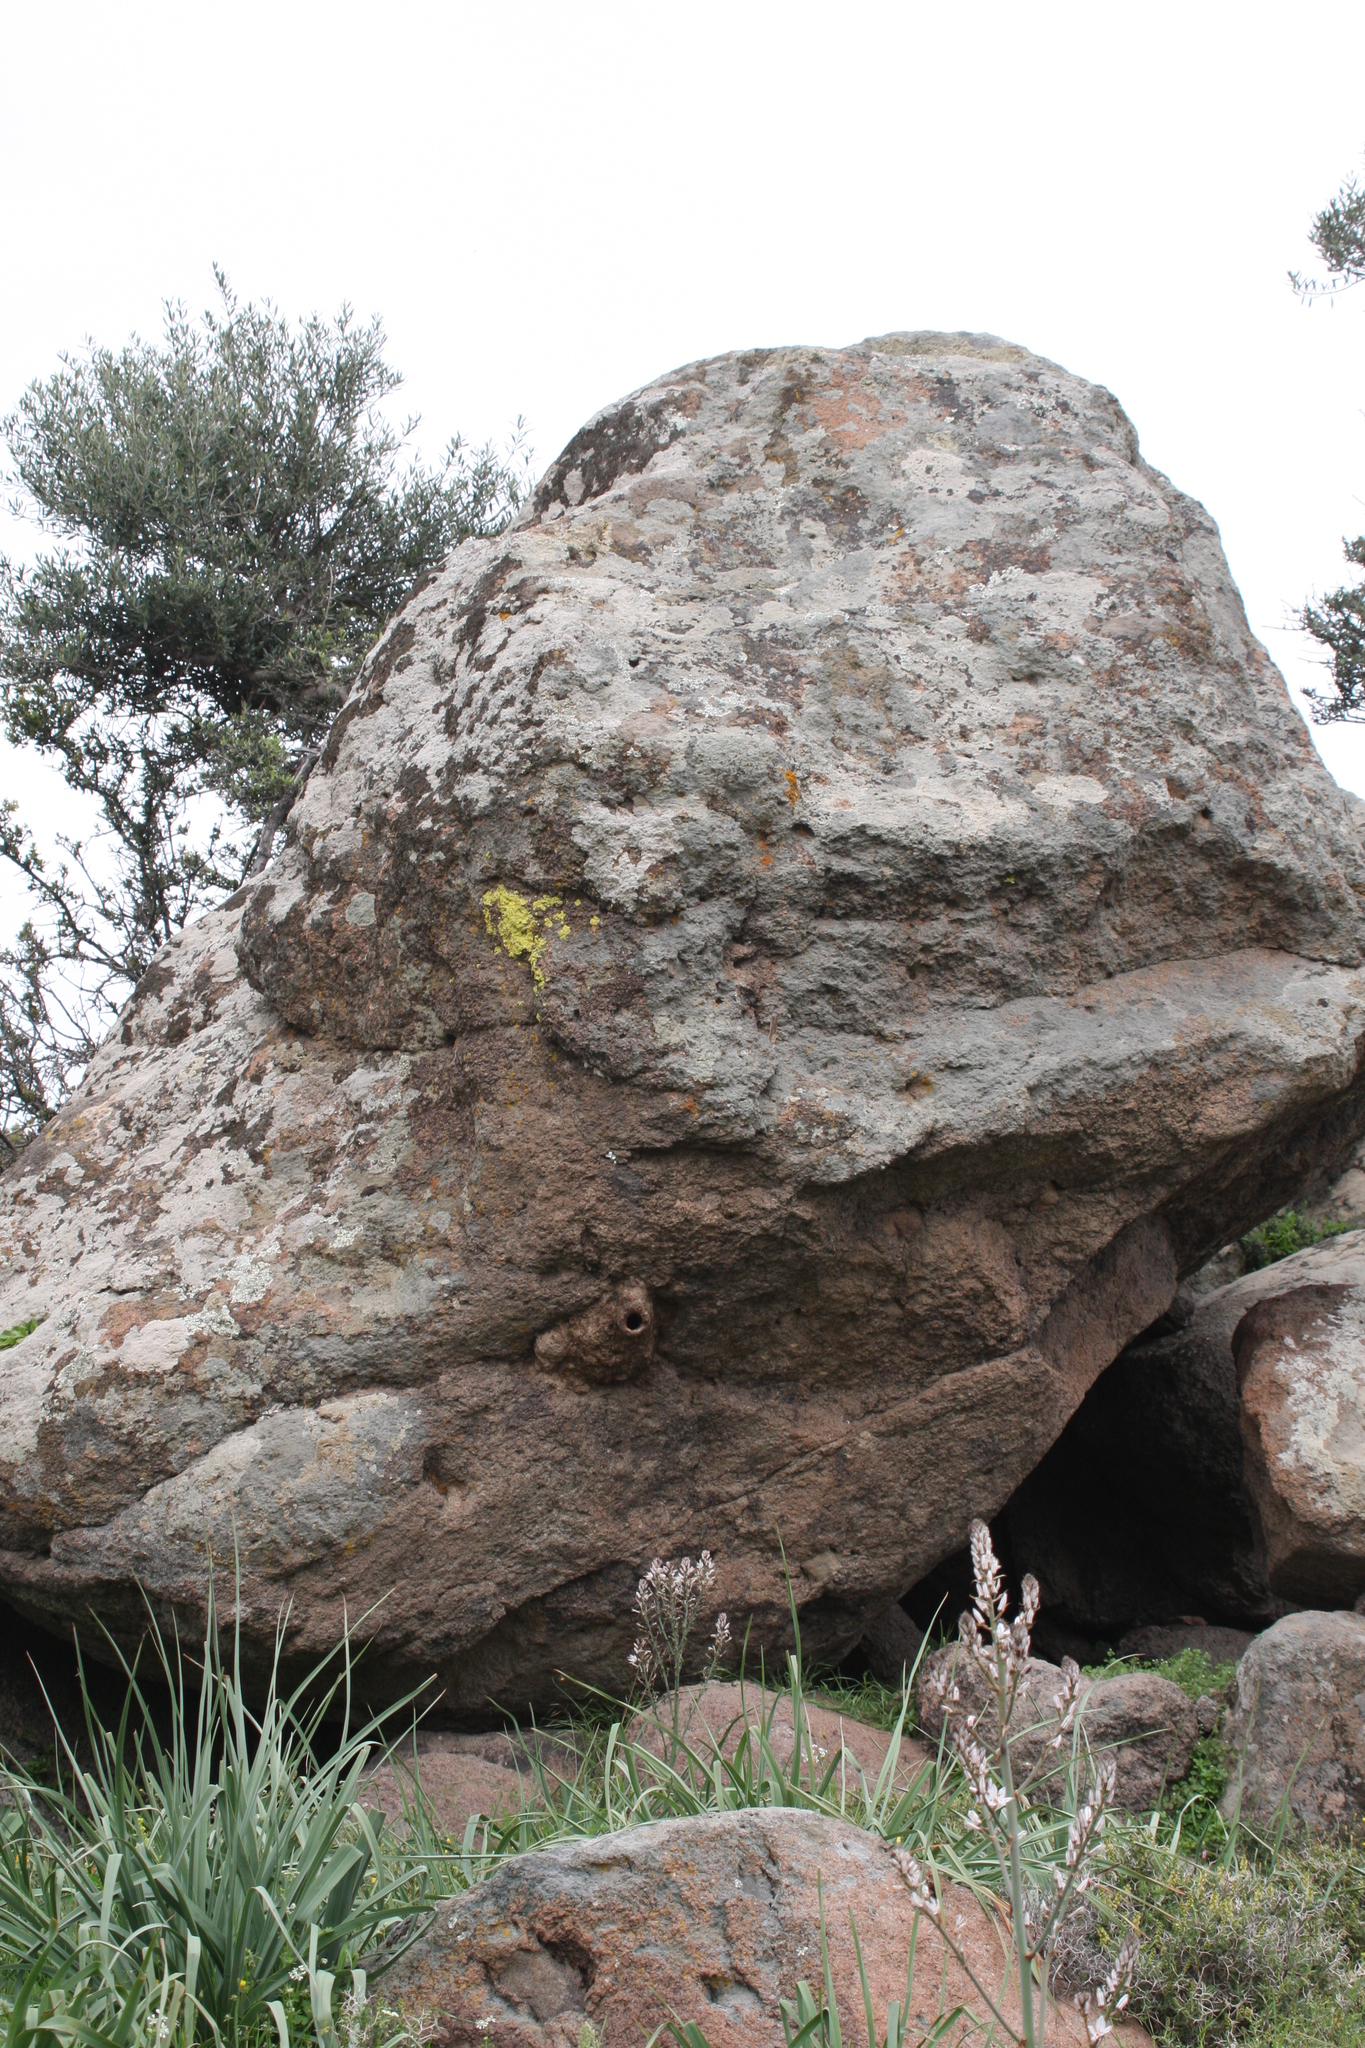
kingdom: Animalia
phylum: Chordata
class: Aves
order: Passeriformes
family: Sittidae
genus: Sitta
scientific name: Sitta neumayer
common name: Western rock nuthatch
